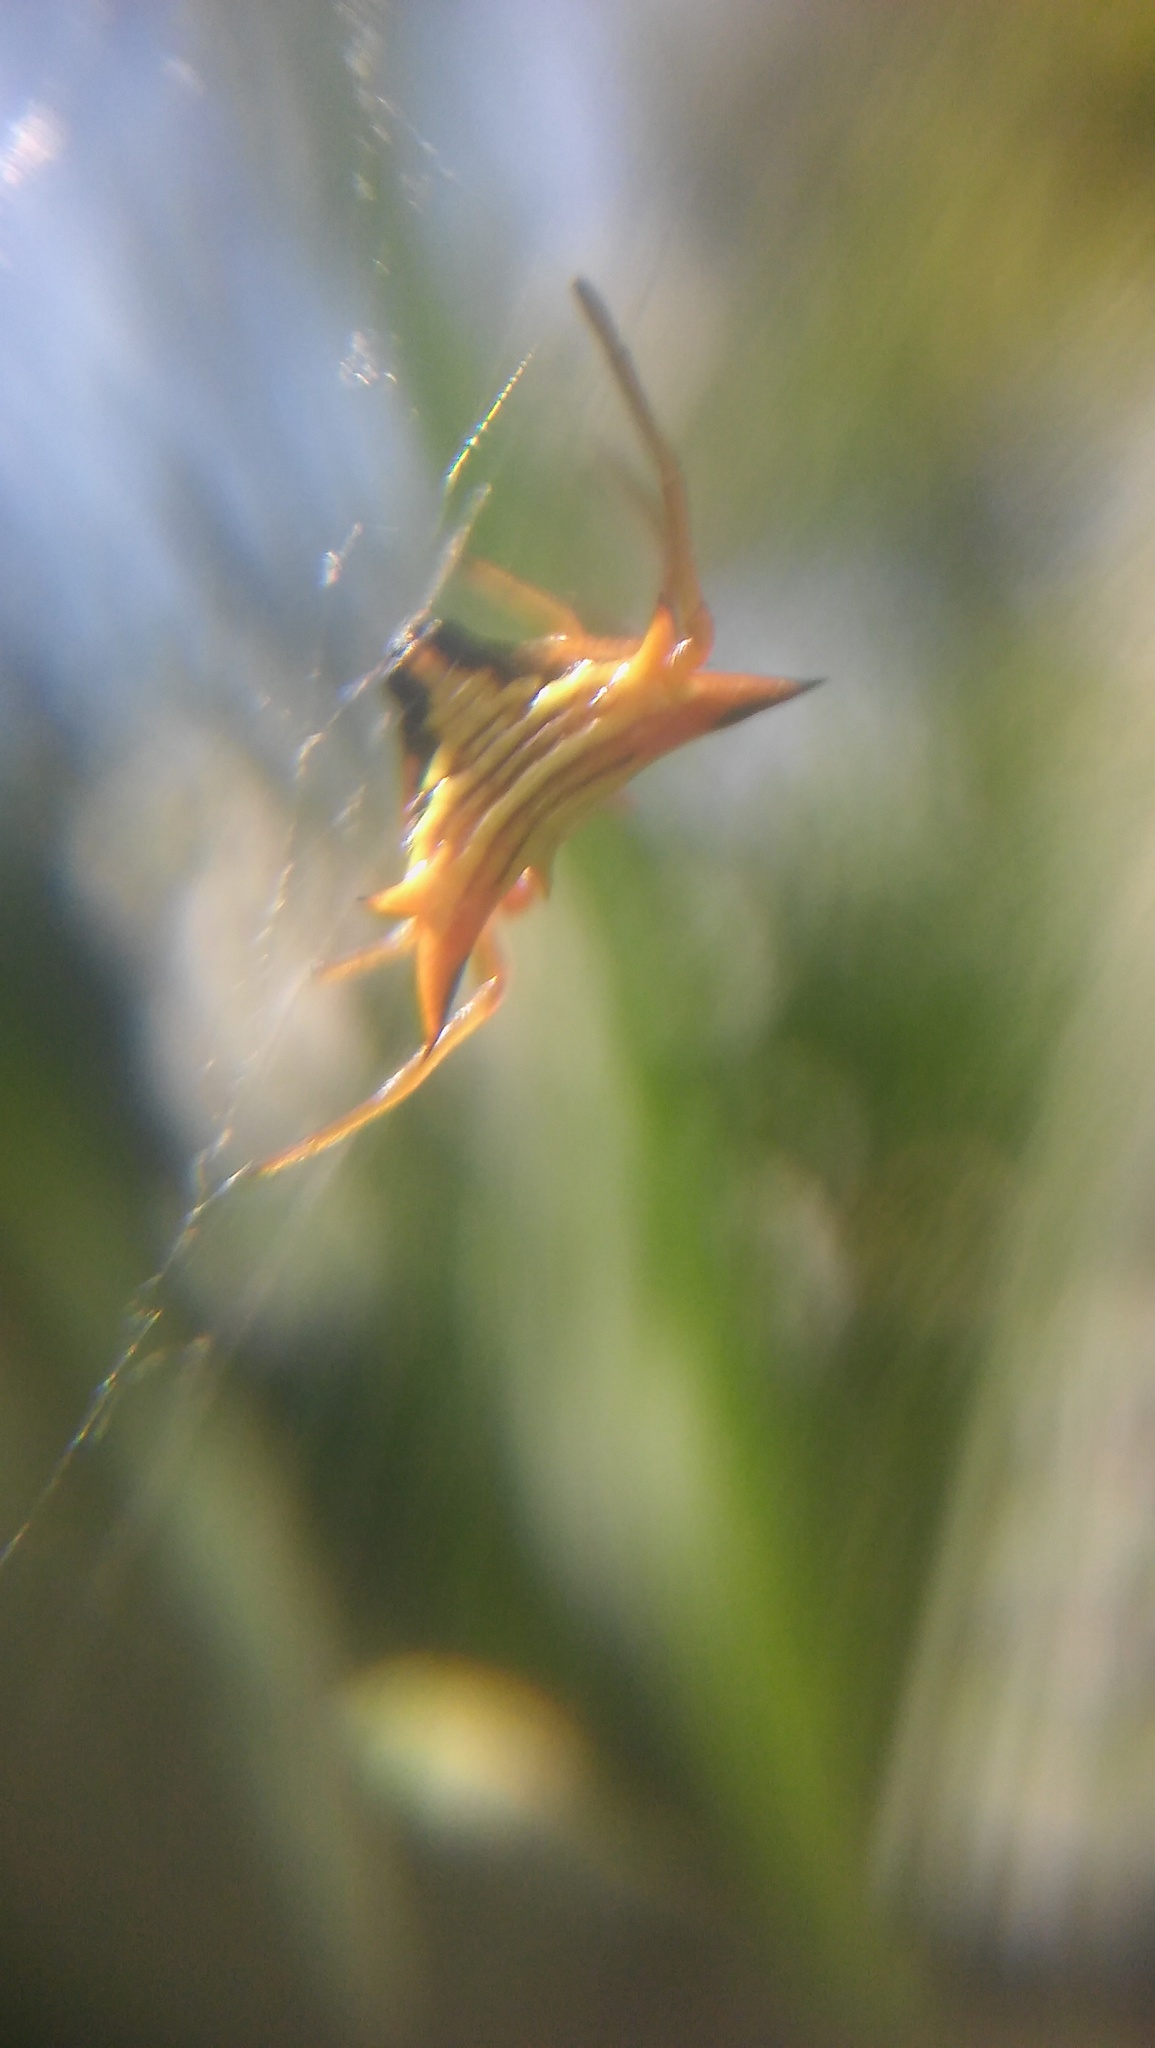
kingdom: Animalia
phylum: Arthropoda
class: Arachnida
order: Araneae
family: Araneidae
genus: Micrathena
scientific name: Micrathena furcata
